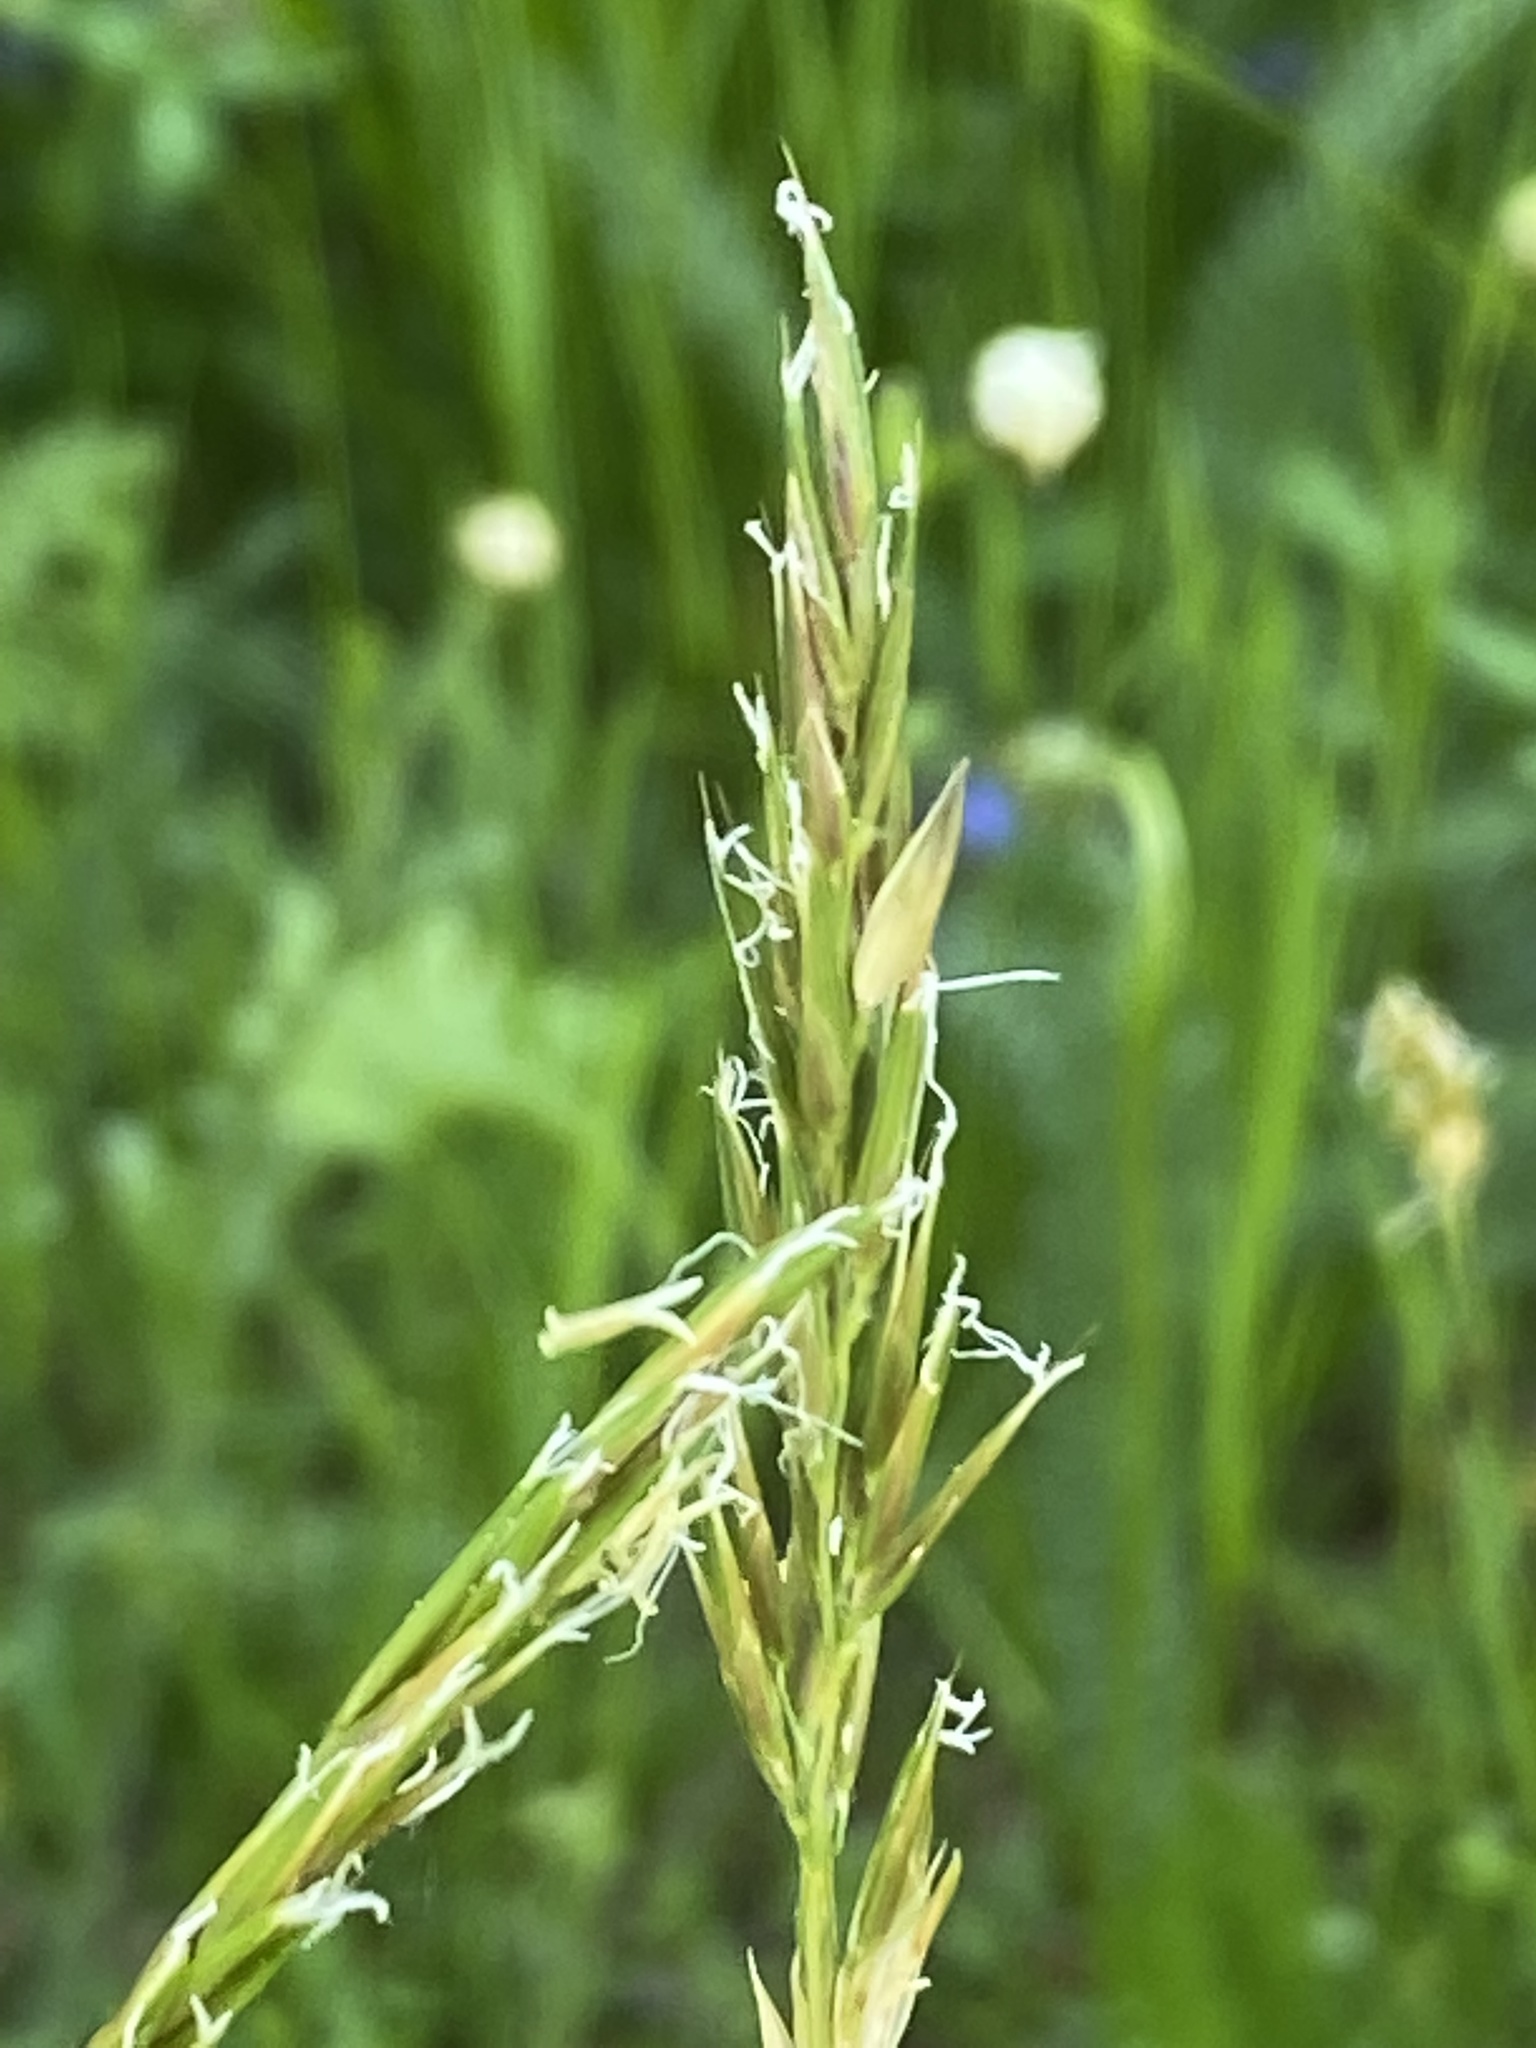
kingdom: Plantae
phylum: Tracheophyta
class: Liliopsida
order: Poales
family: Poaceae
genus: Anthoxanthum
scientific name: Anthoxanthum odoratum
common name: Sweet vernalgrass
